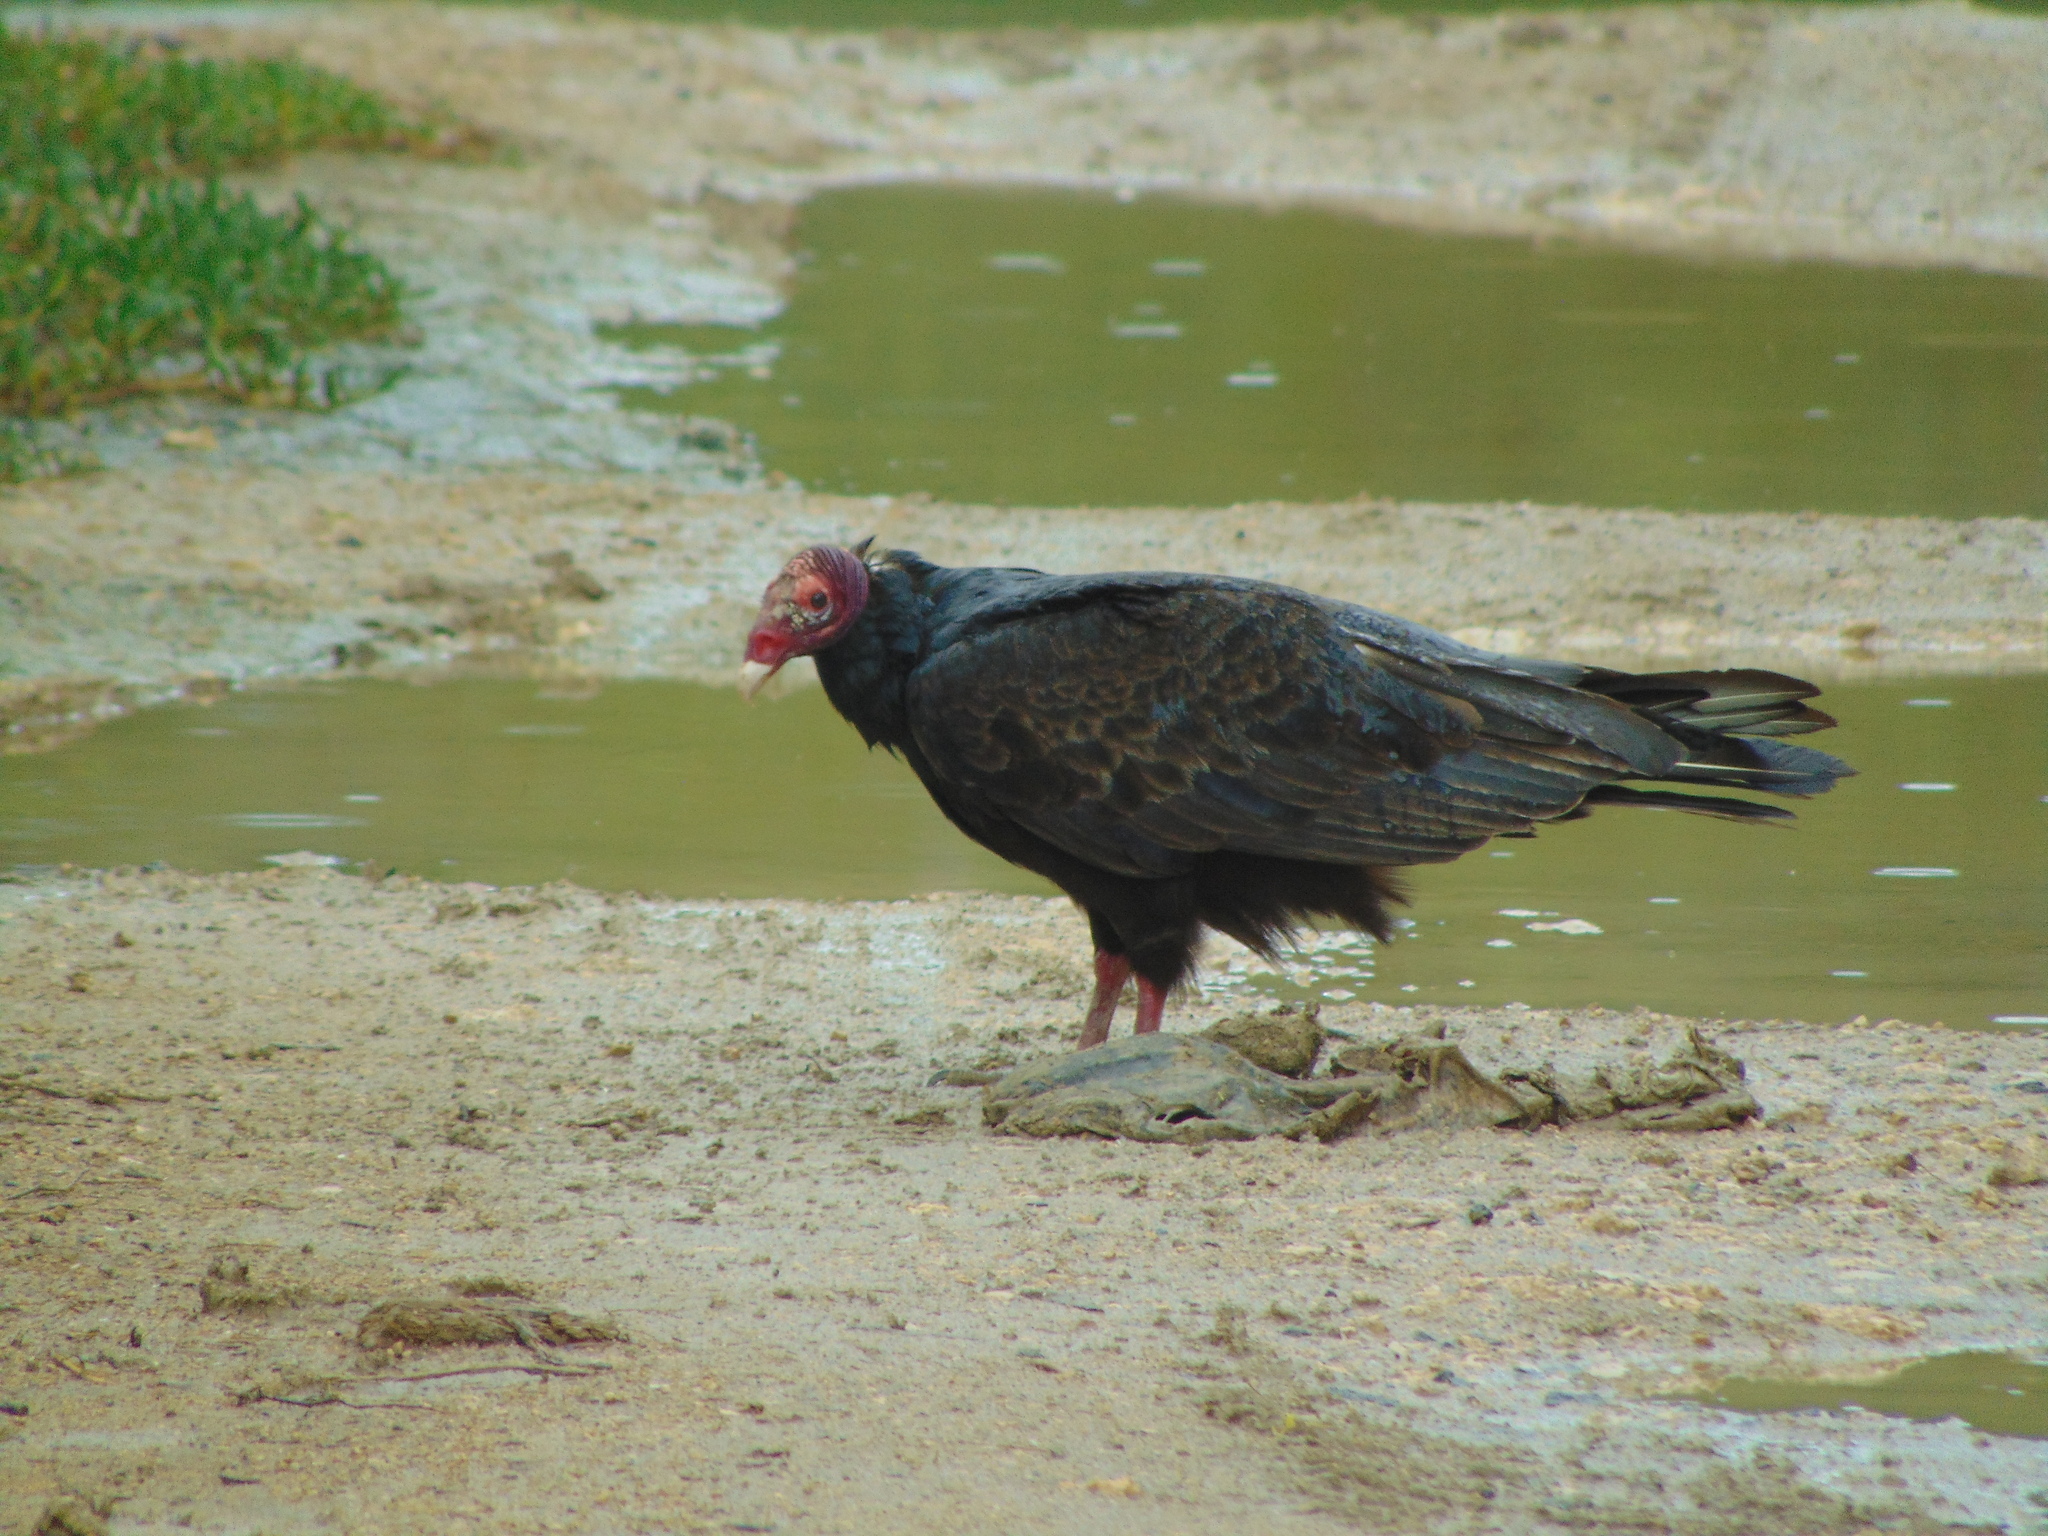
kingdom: Animalia
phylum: Chordata
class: Aves
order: Accipitriformes
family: Cathartidae
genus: Cathartes
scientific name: Cathartes aura
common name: Turkey vulture
